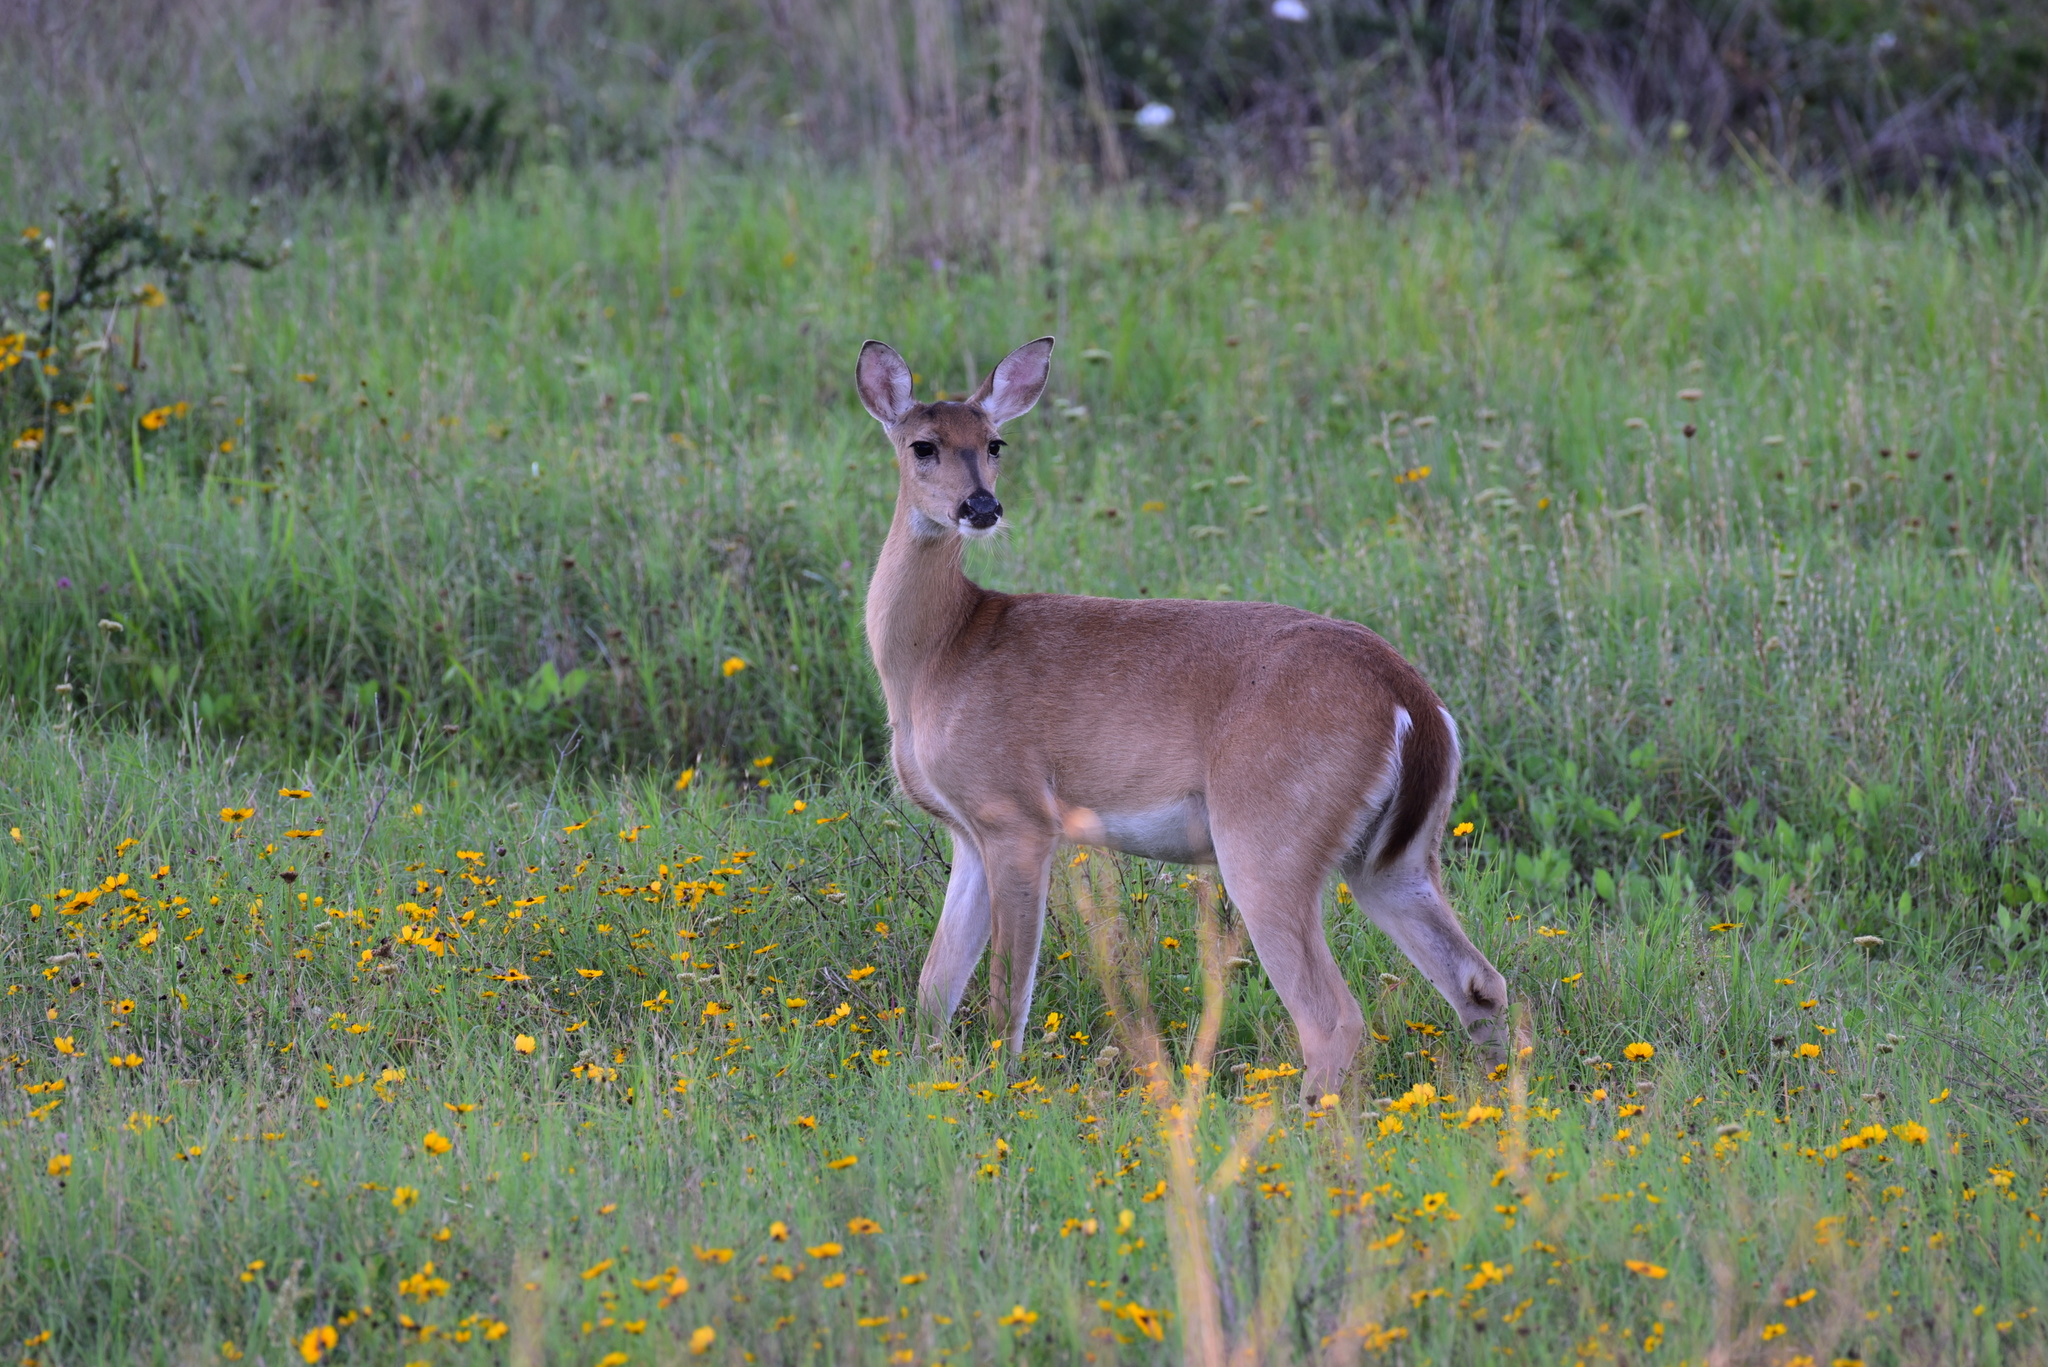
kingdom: Animalia
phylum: Chordata
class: Mammalia
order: Artiodactyla
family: Cervidae
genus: Odocoileus
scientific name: Odocoileus virginianus
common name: White-tailed deer
